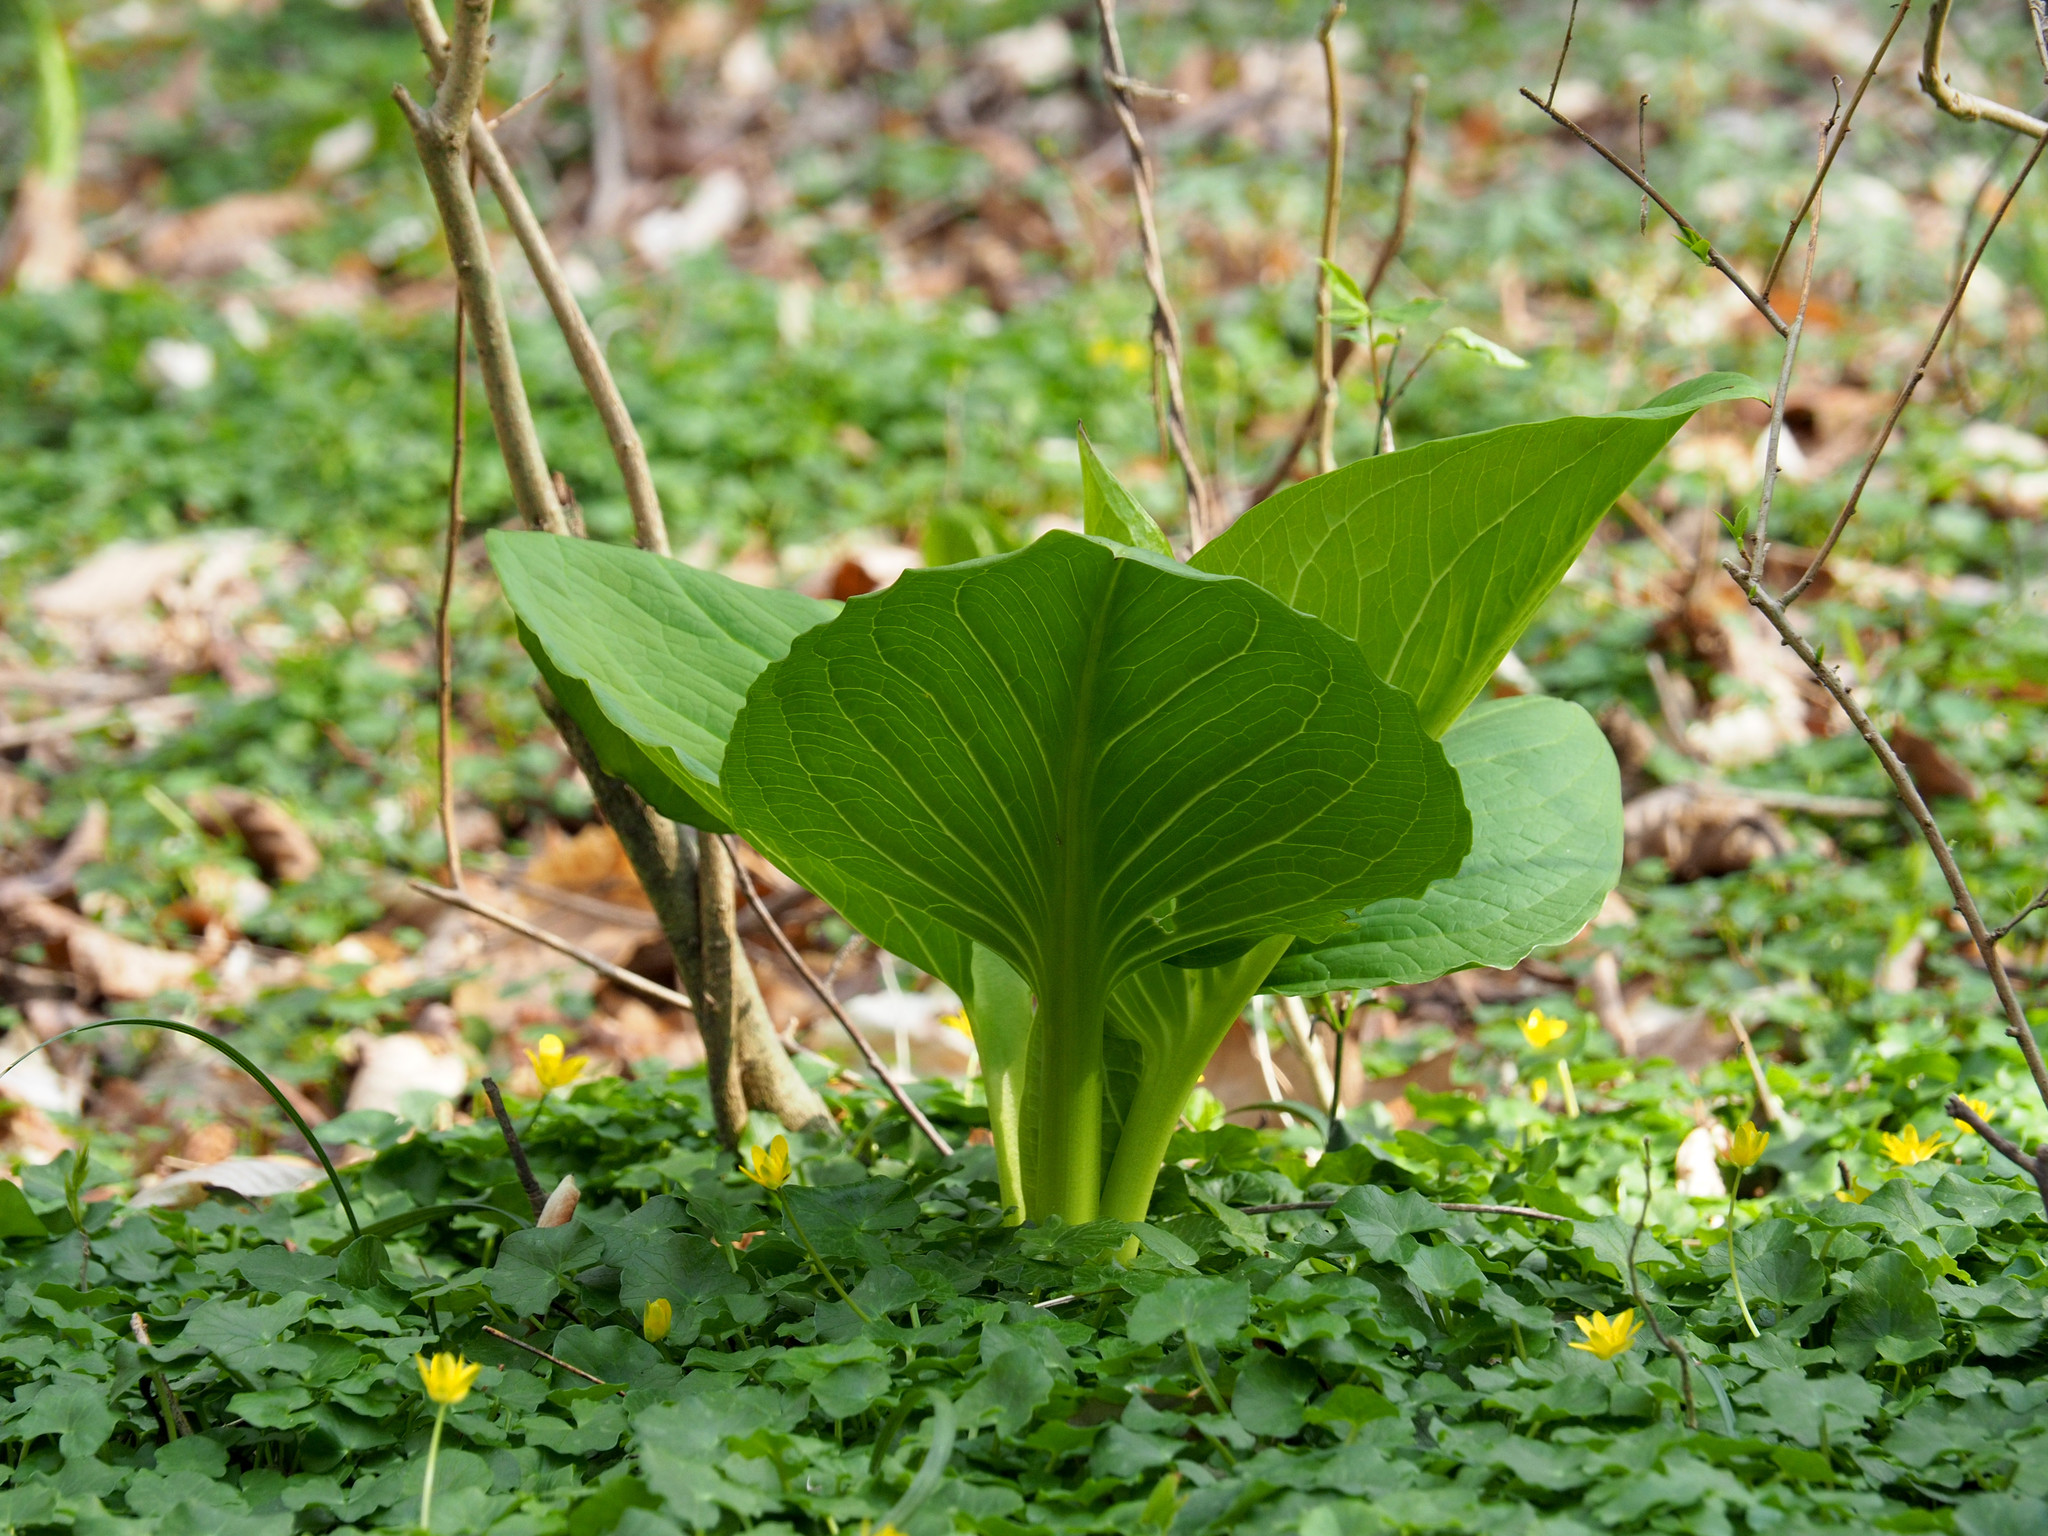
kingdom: Plantae
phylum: Tracheophyta
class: Liliopsida
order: Alismatales
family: Araceae
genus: Symplocarpus
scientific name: Symplocarpus foetidus
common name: Eastern skunk cabbage
